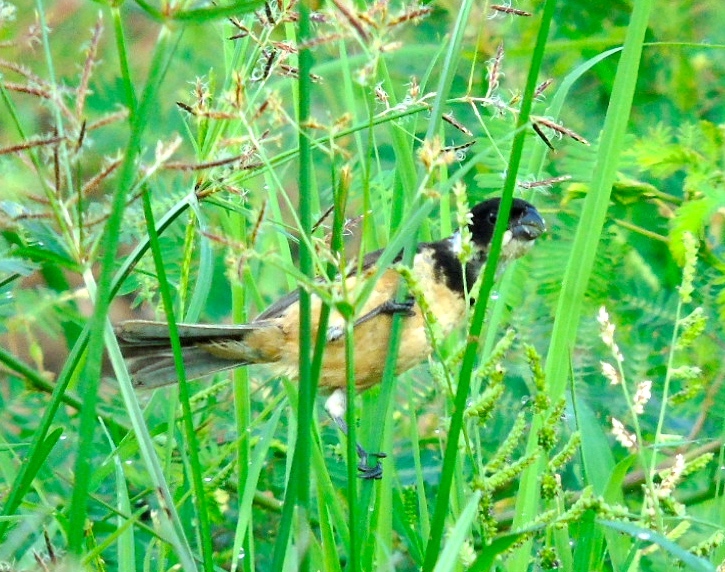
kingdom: Animalia
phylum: Chordata
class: Aves
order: Passeriformes
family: Thraupidae
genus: Sporophila
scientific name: Sporophila torqueola
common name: White-collared seedeater
